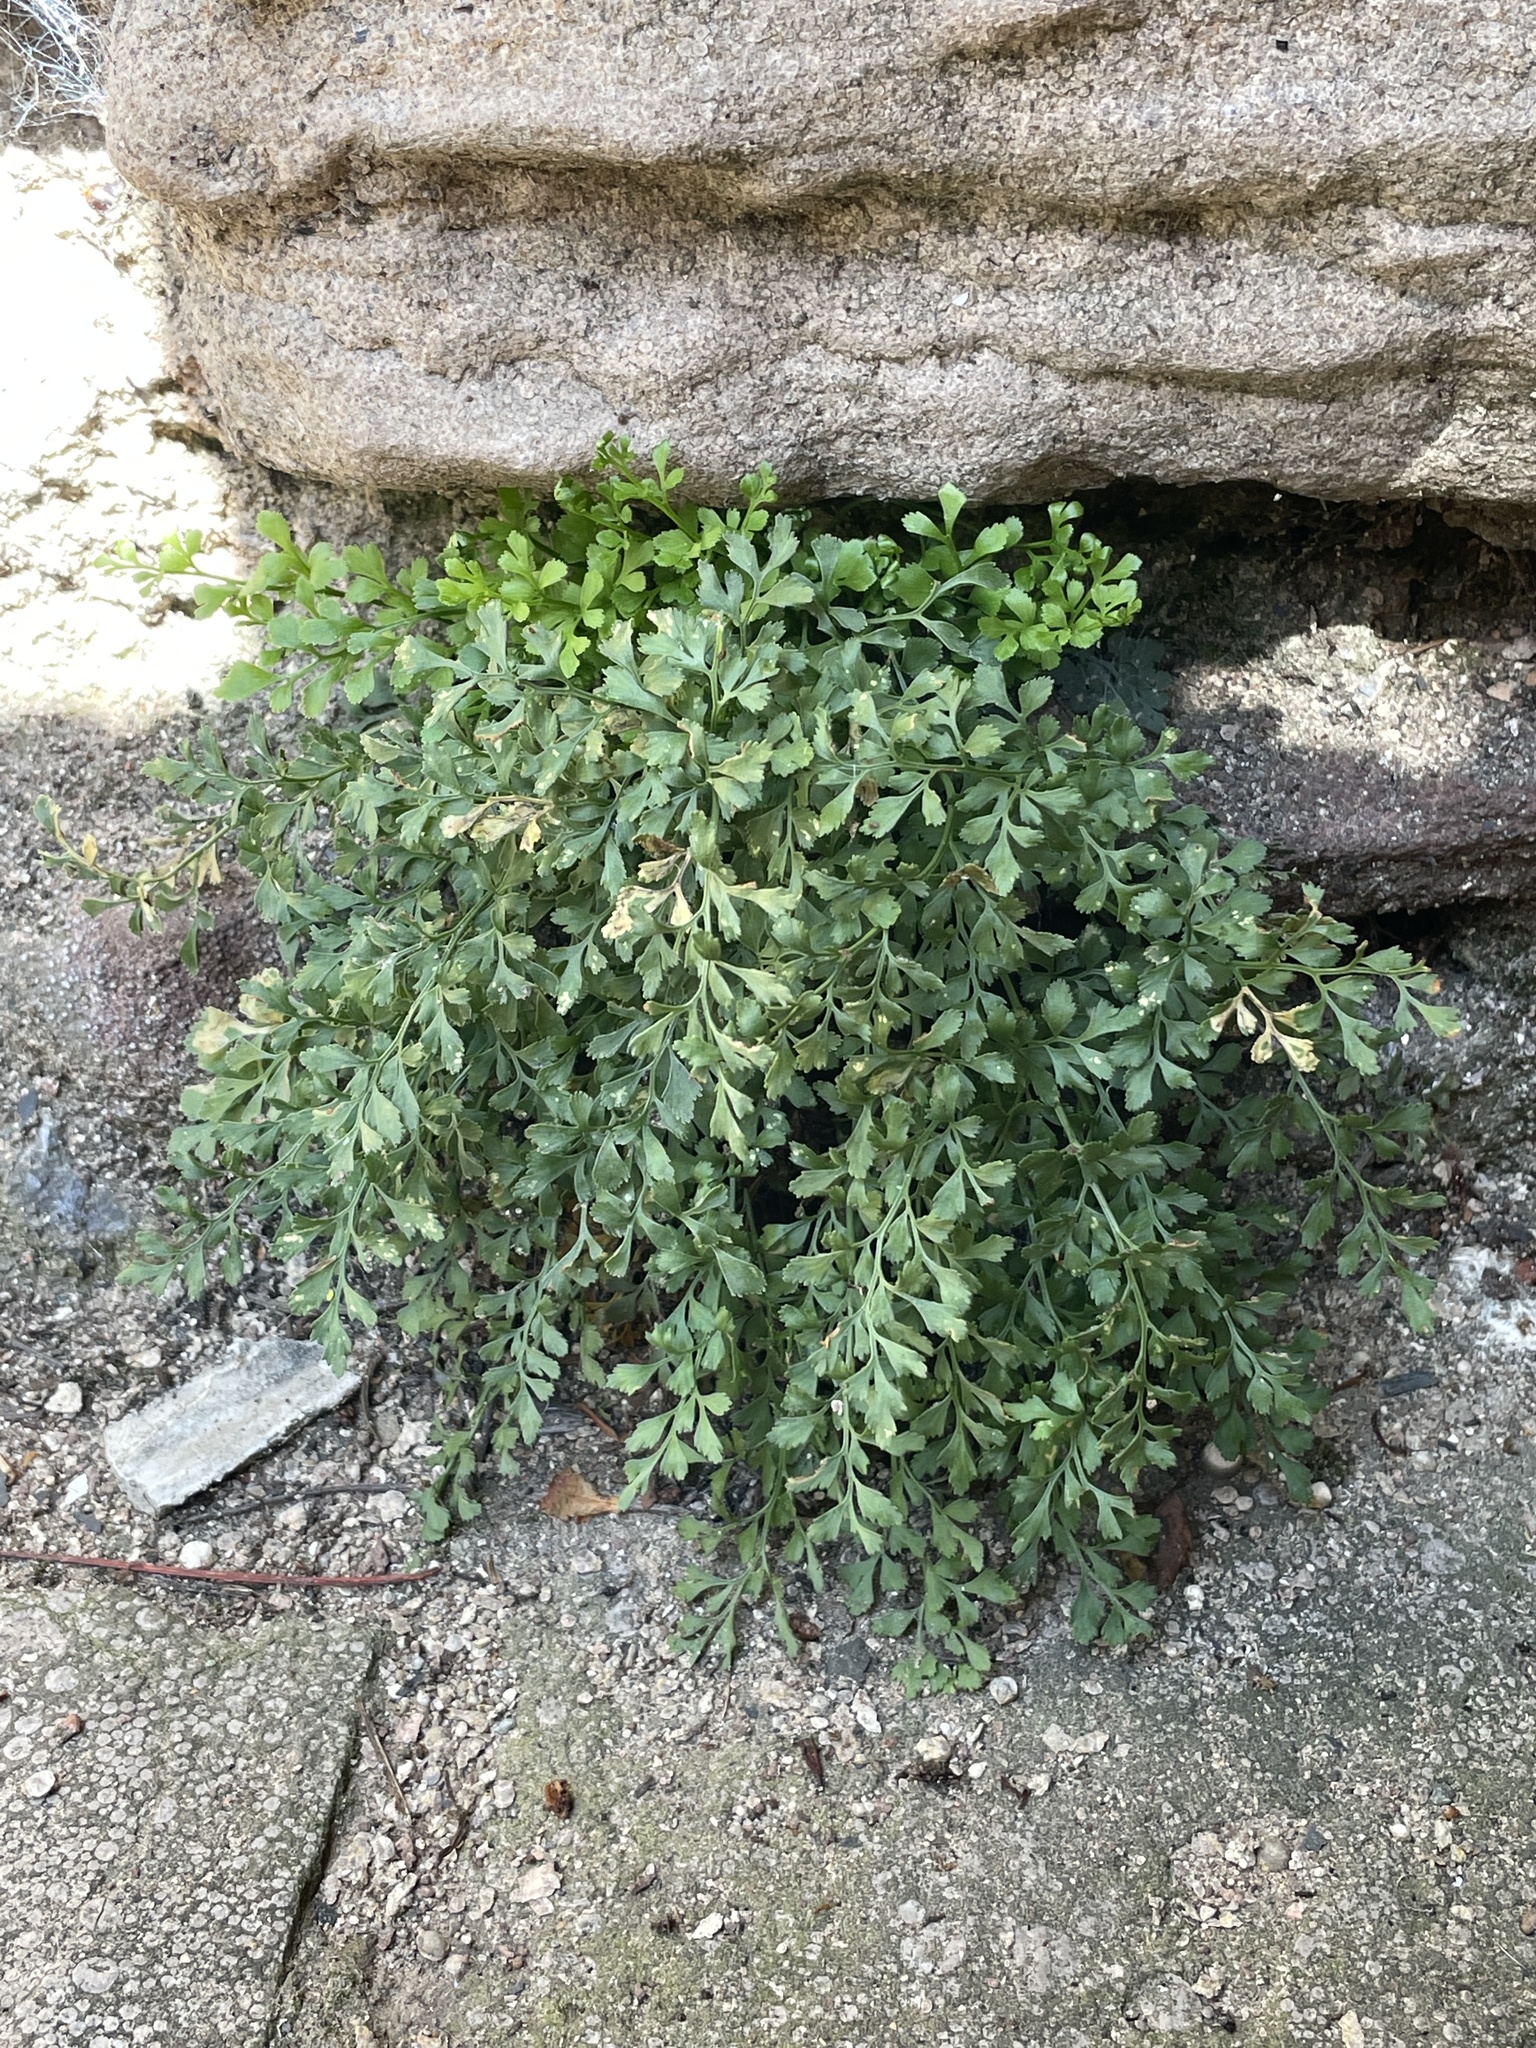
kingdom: Plantae
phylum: Tracheophyta
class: Polypodiopsida
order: Polypodiales
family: Aspleniaceae
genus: Asplenium
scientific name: Asplenium ruta-muraria
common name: Wall-rue
